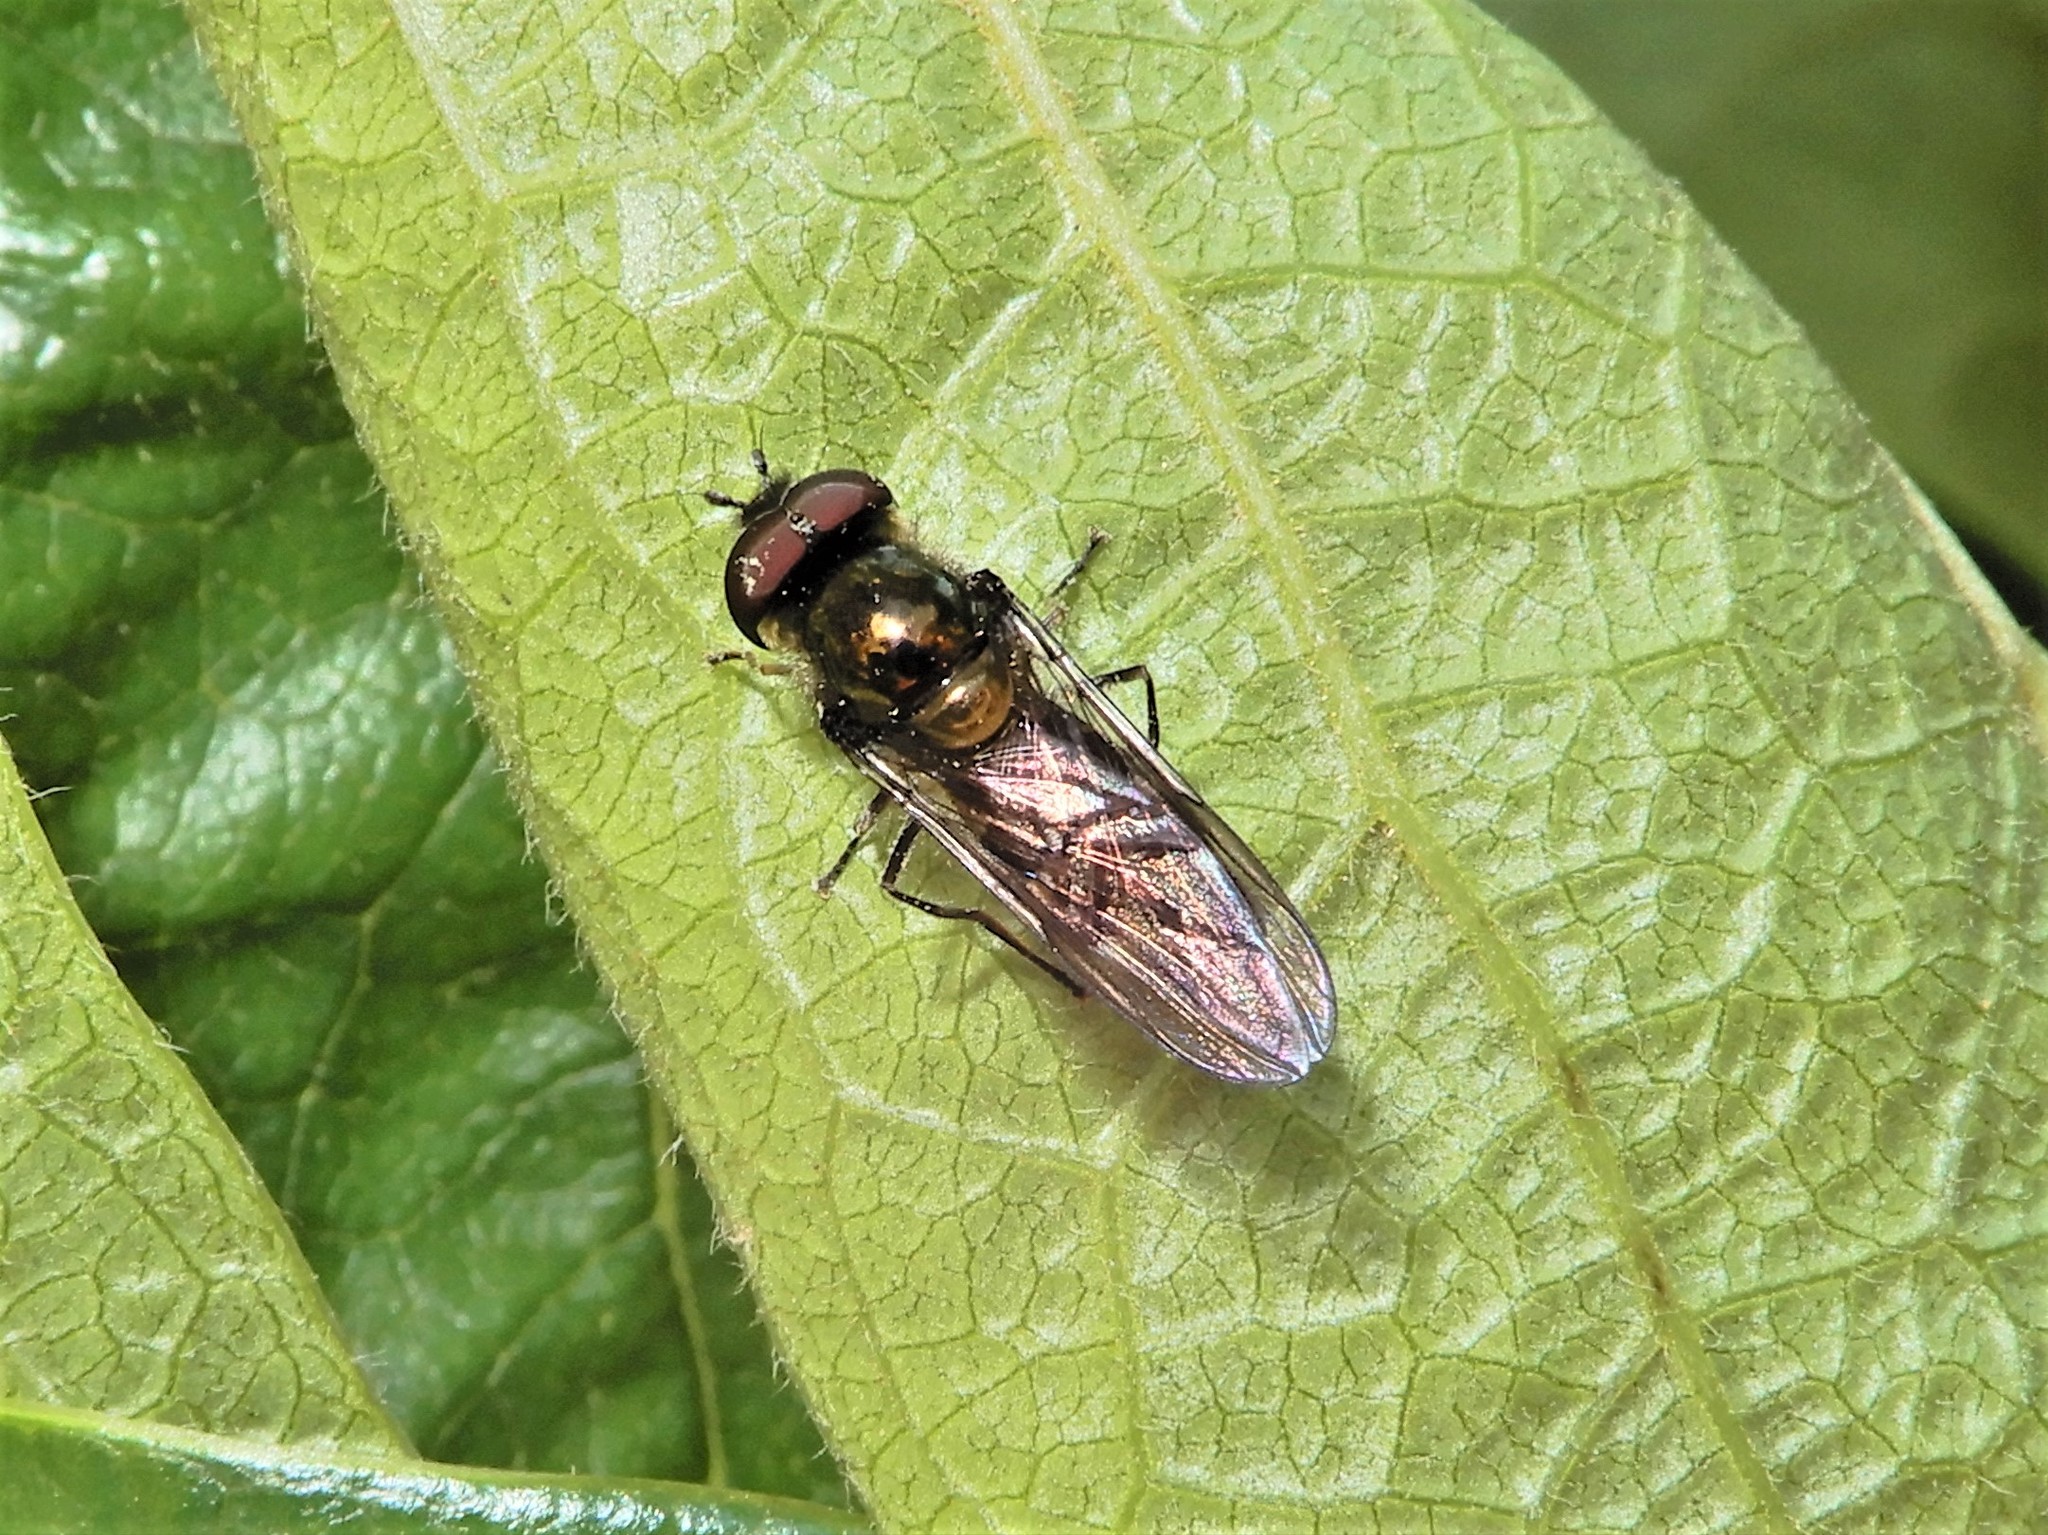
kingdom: Animalia
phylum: Arthropoda
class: Insecta
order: Diptera
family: Syrphidae
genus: Melangyna
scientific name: Melangyna novaezelandiae
